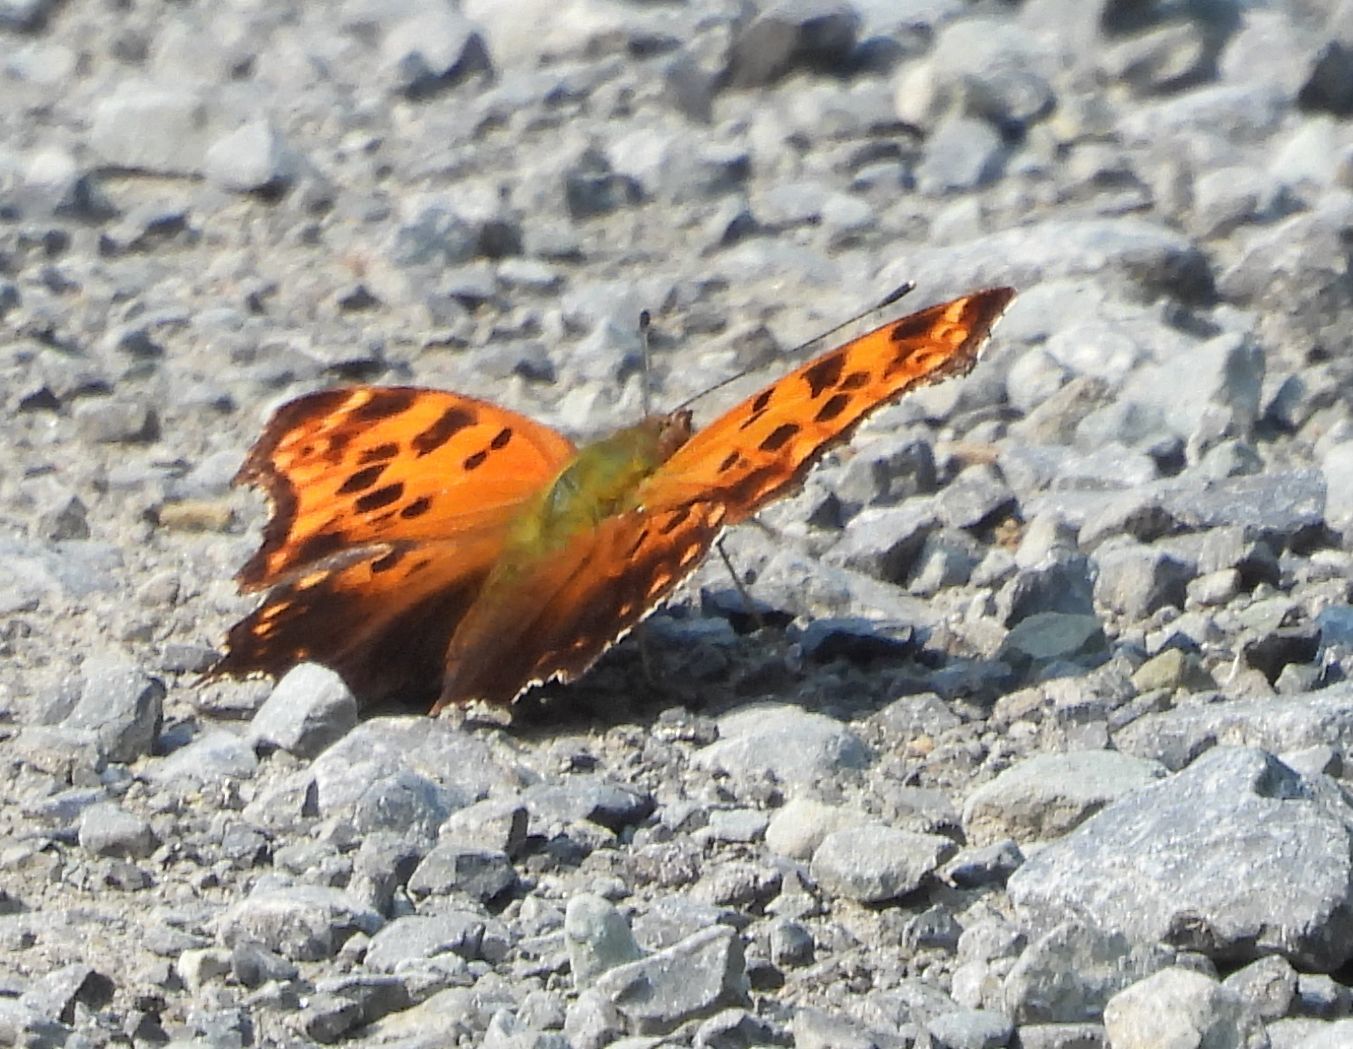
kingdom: Animalia
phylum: Arthropoda
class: Insecta
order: Lepidoptera
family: Nymphalidae
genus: Polygonia
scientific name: Polygonia interrogationis
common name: Question mark
